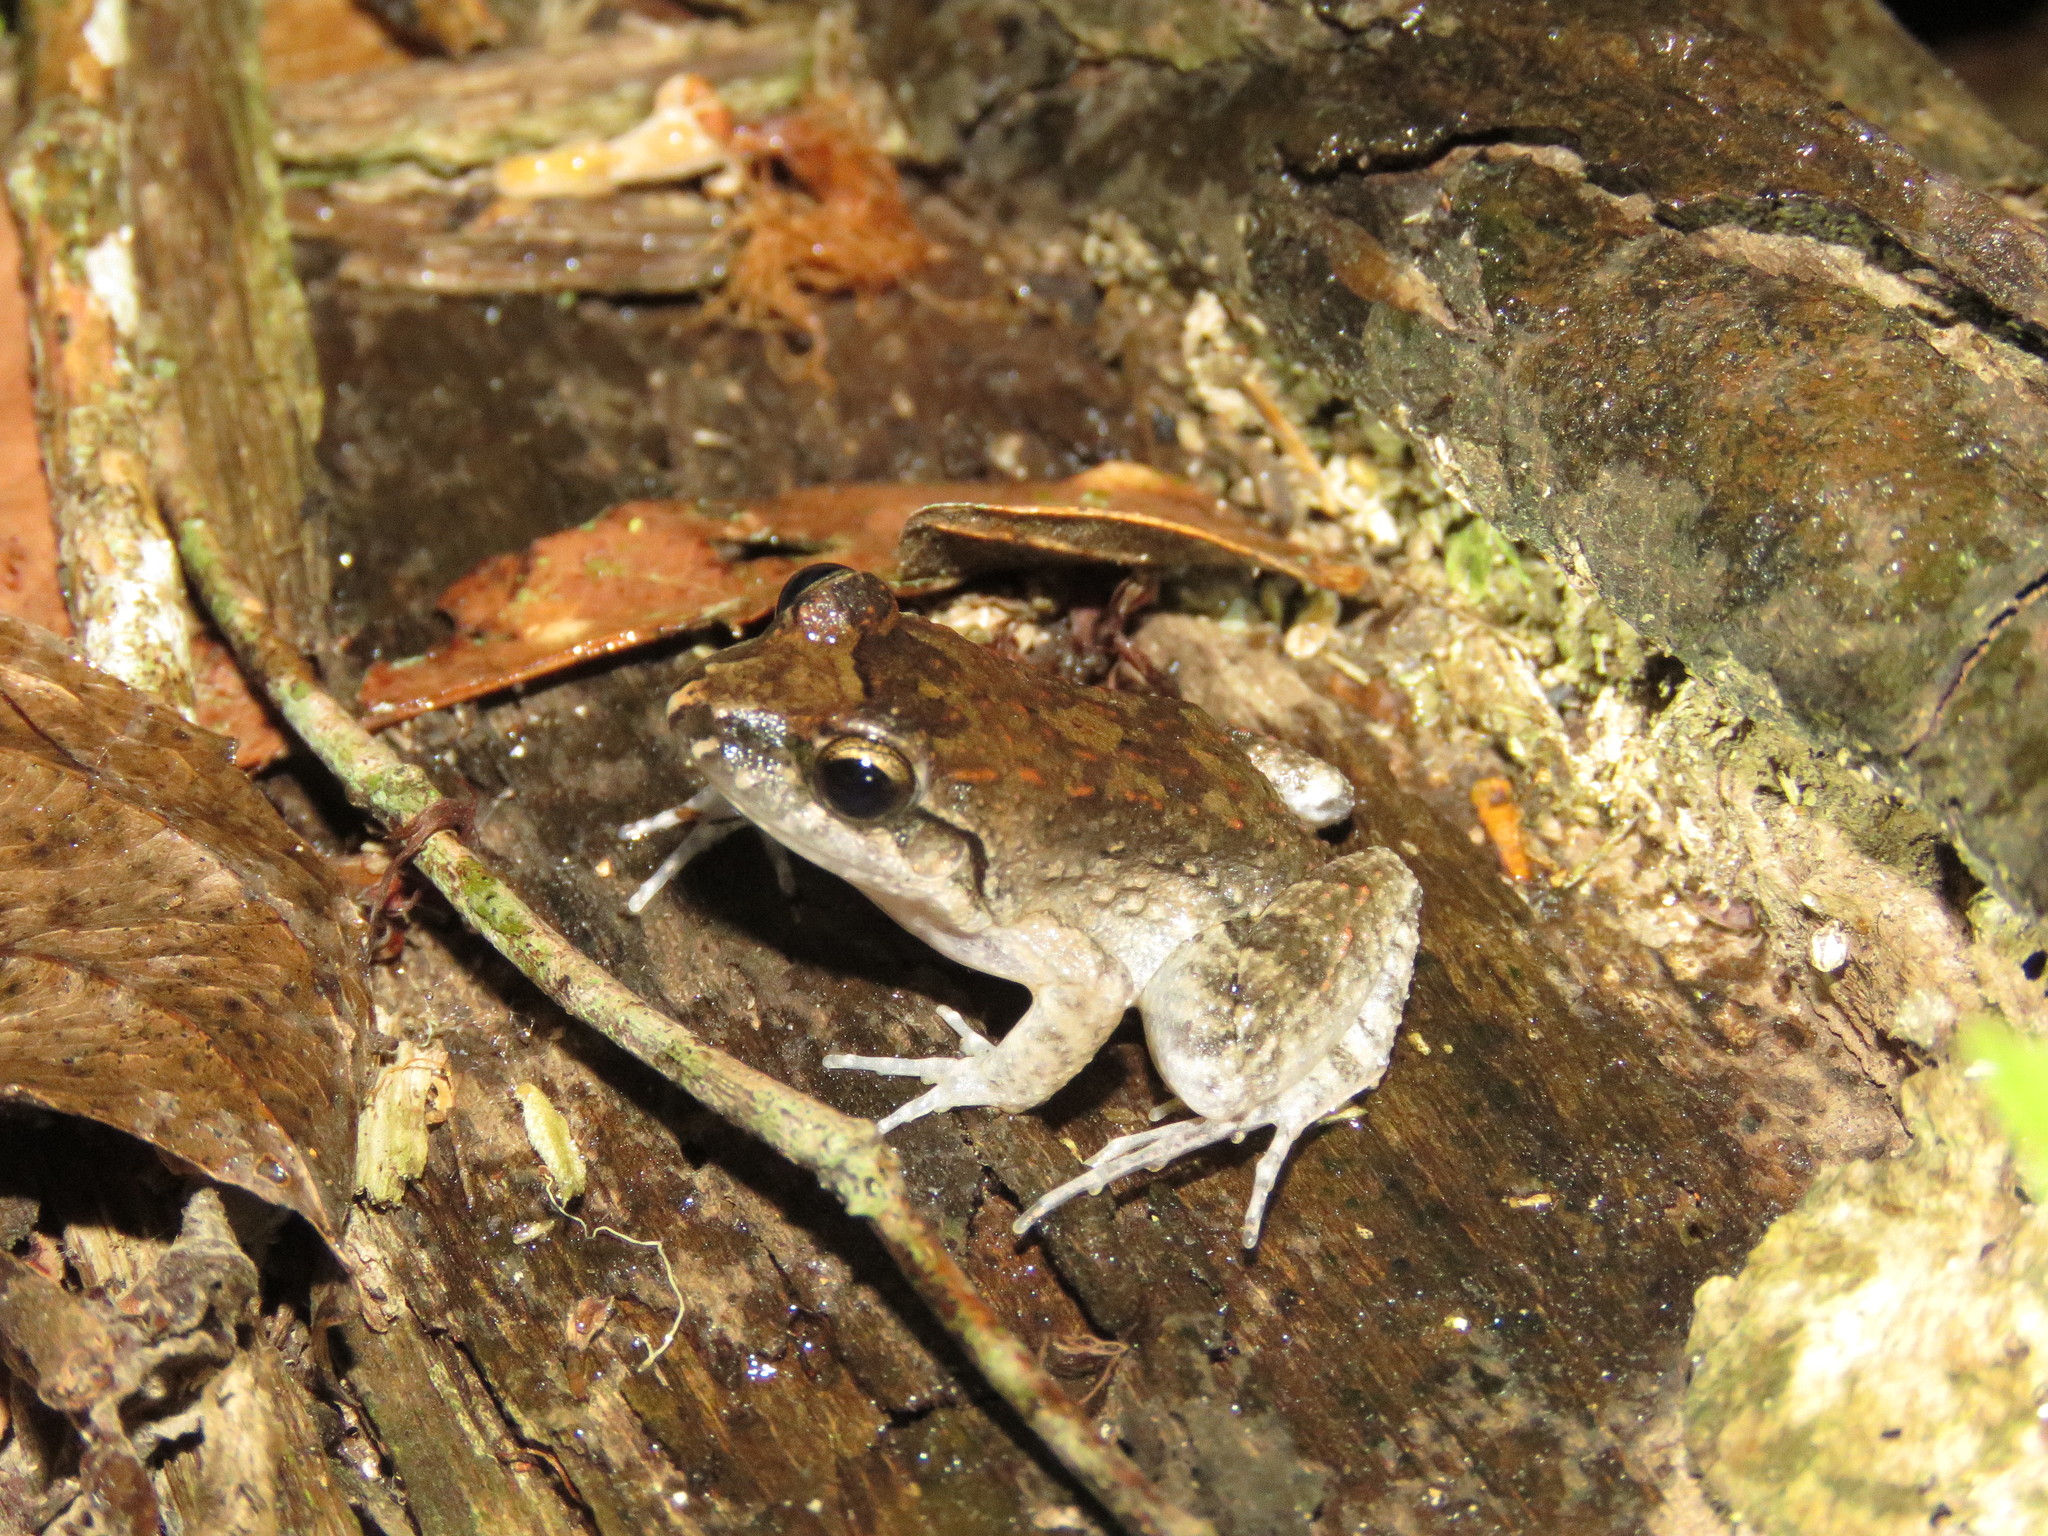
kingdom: Animalia
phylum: Chordata
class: Amphibia
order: Anura
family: Leptodactylidae
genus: Leptodactylus
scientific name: Leptodactylus leptodactyloides
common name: Common thin-toed frog
